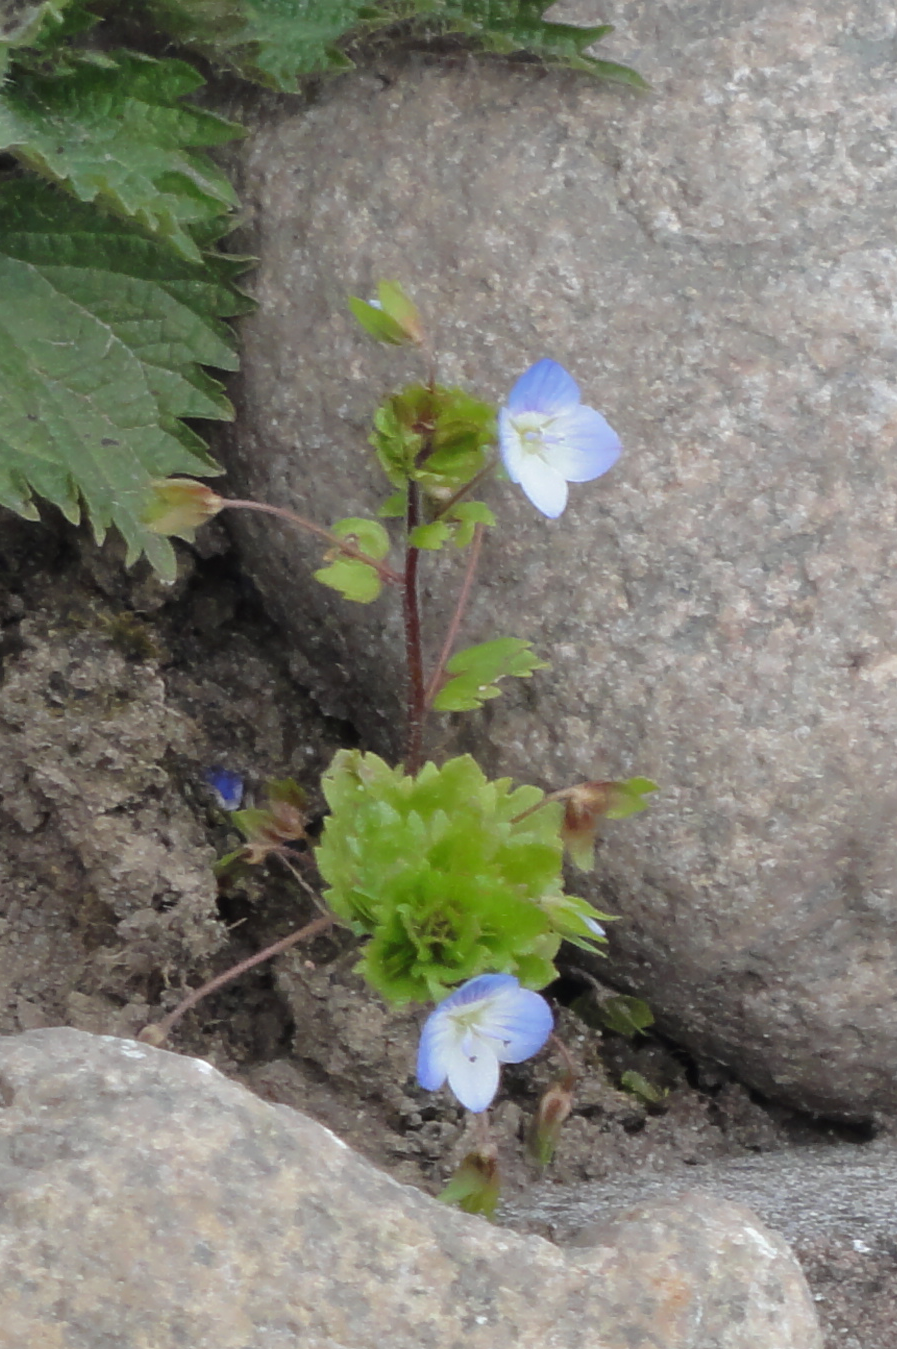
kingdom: Plantae
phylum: Tracheophyta
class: Magnoliopsida
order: Lamiales
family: Plantaginaceae
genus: Veronica
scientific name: Veronica persica
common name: Common field-speedwell
